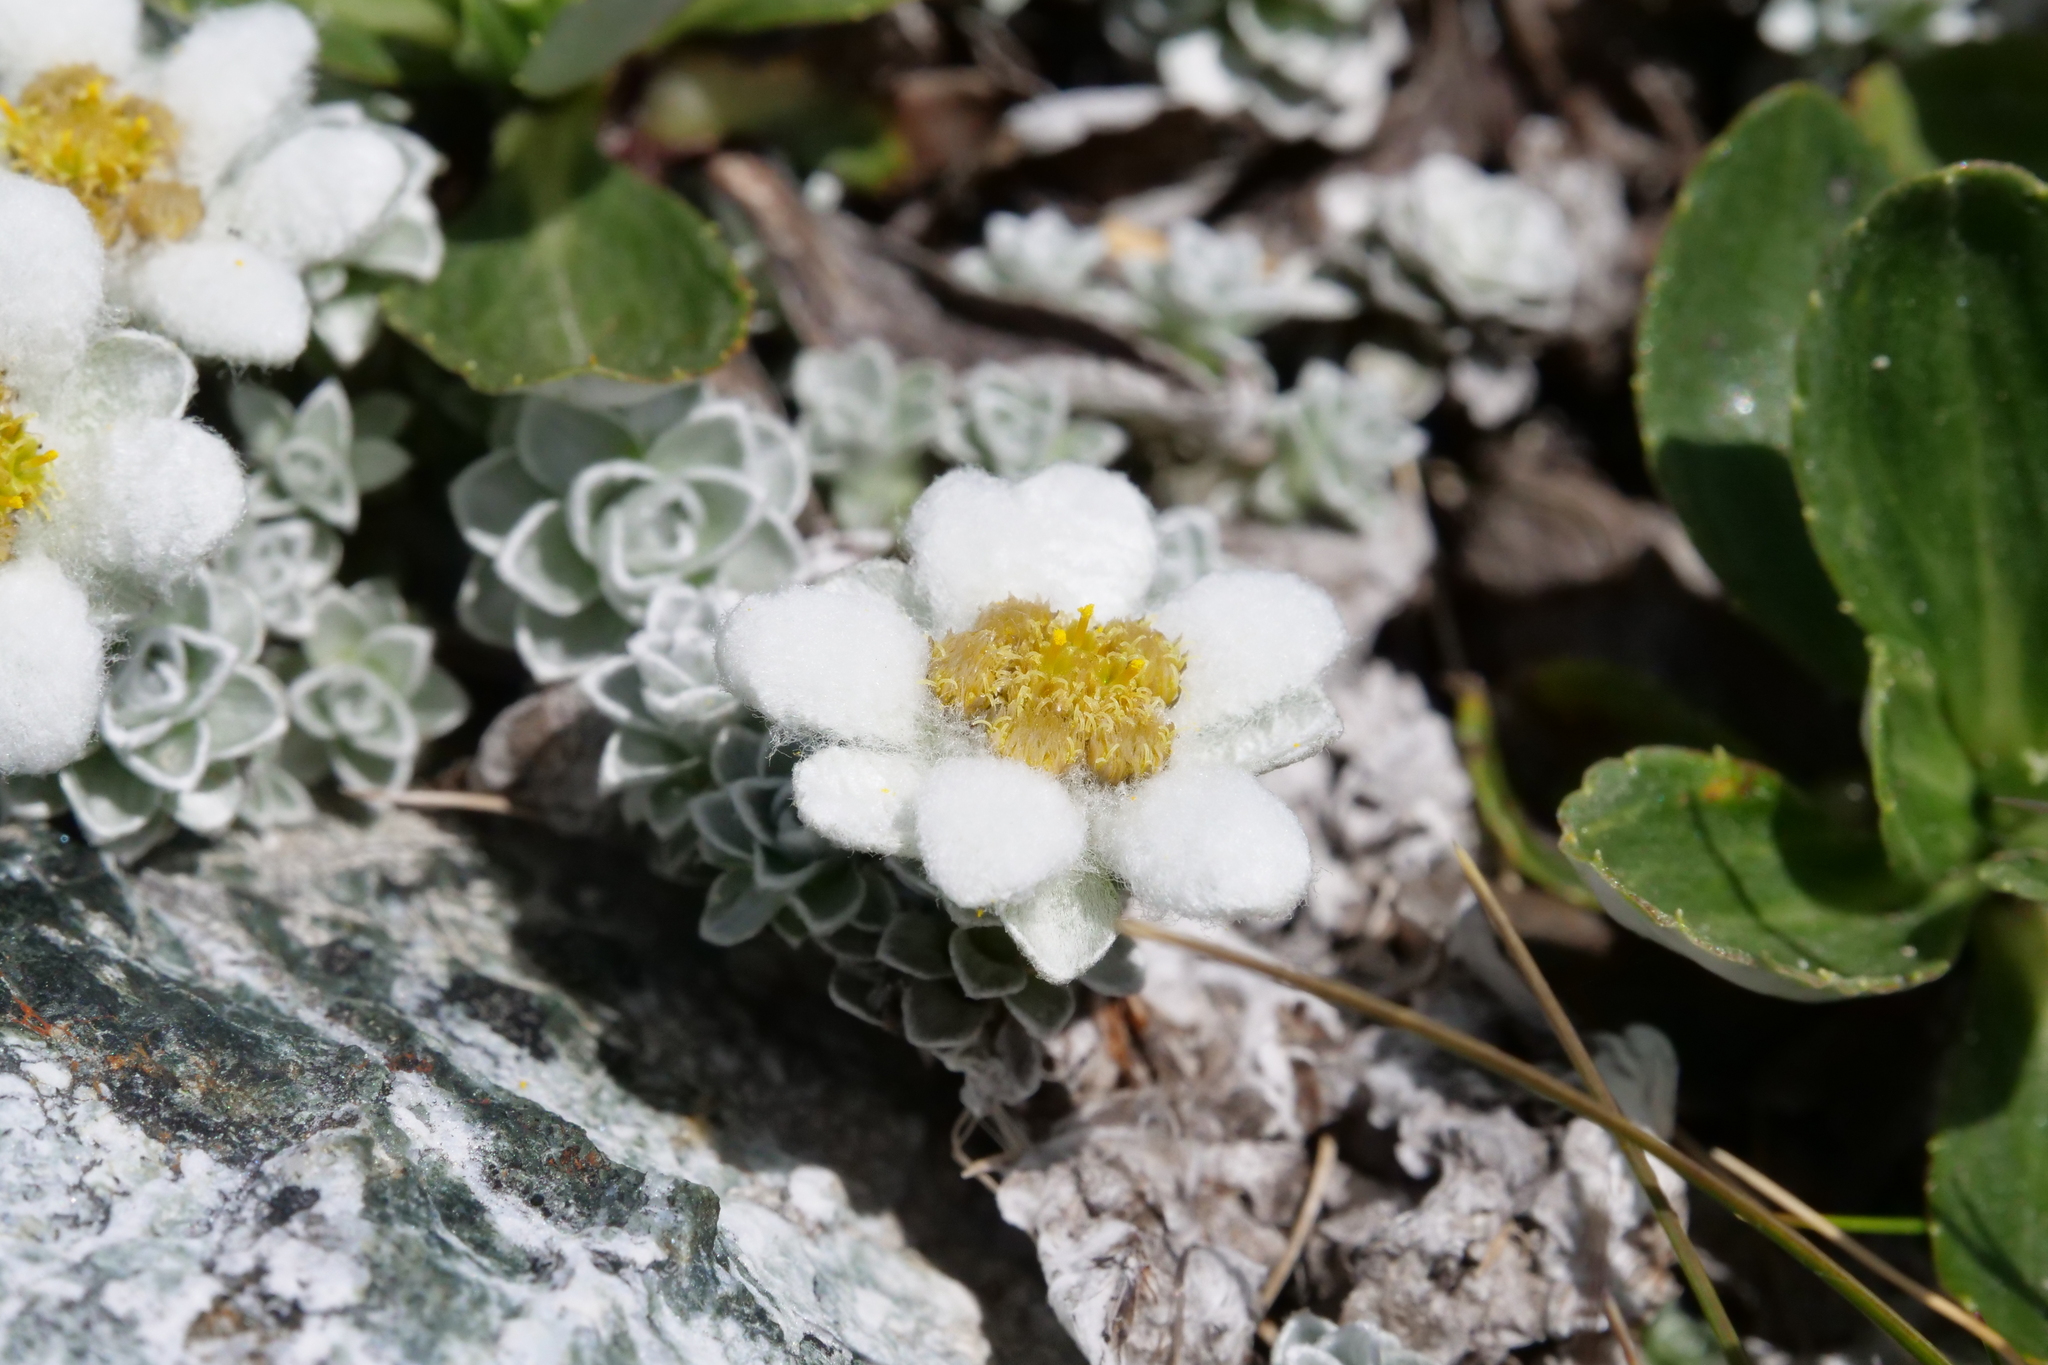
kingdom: Plantae
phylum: Tracheophyta
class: Magnoliopsida
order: Asterales
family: Asteraceae
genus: Leucogenes
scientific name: Leucogenes grandiceps
